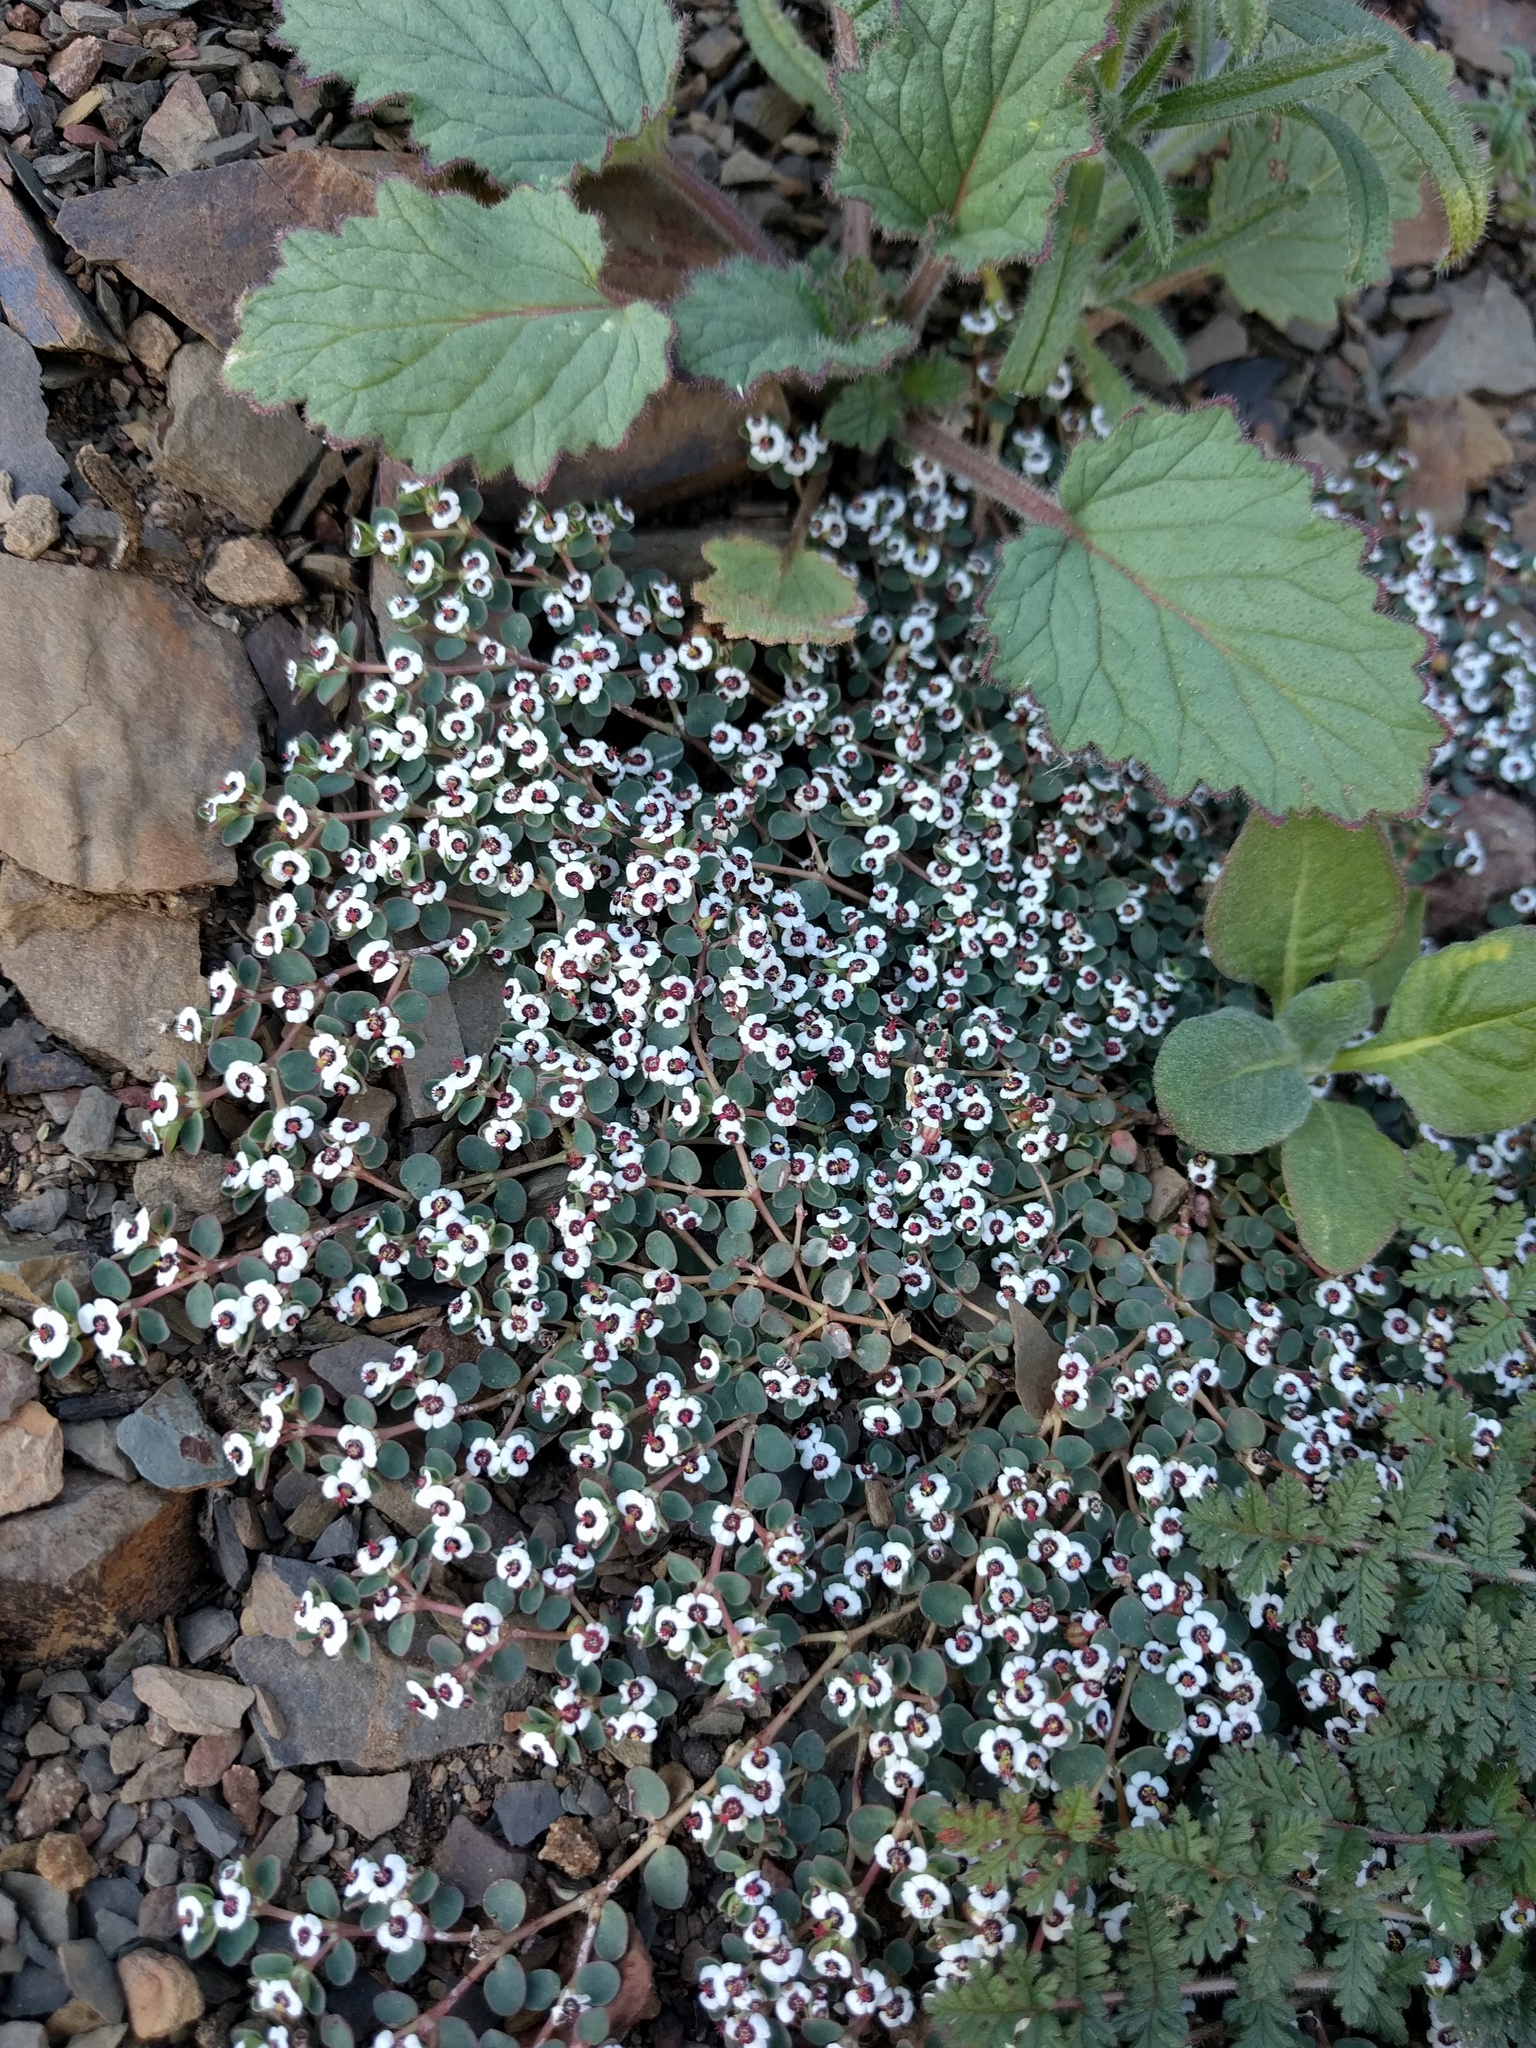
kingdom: Plantae
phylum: Tracheophyta
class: Magnoliopsida
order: Malpighiales
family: Euphorbiaceae
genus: Euphorbia
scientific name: Euphorbia polycarpa
